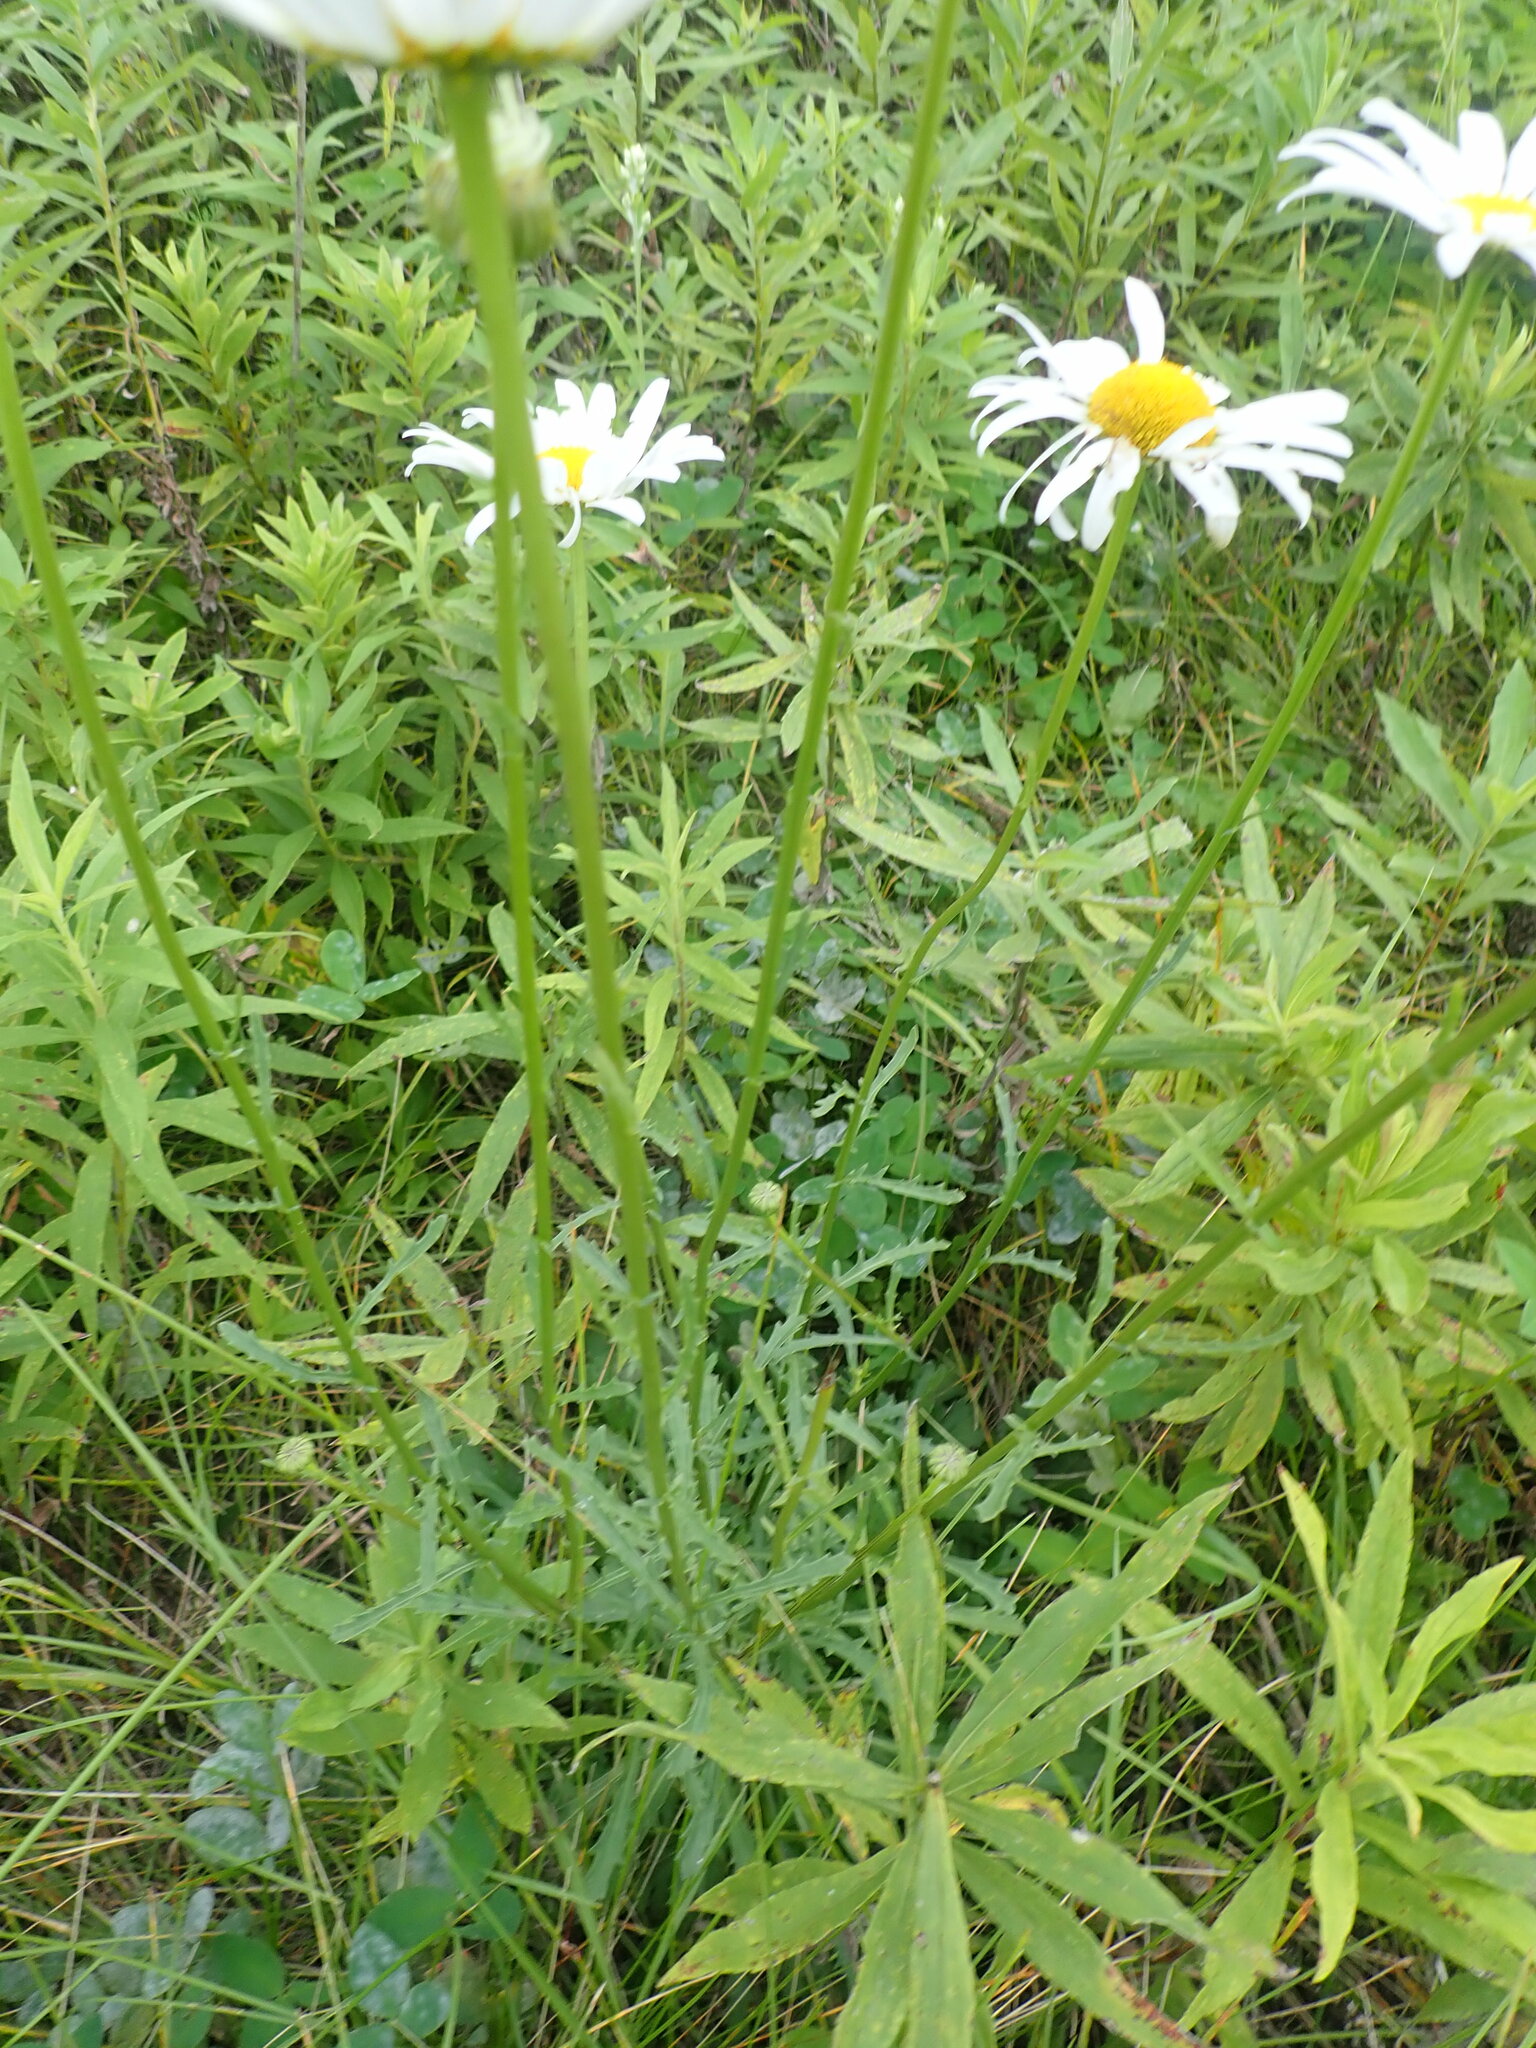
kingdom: Plantae
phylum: Tracheophyta
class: Magnoliopsida
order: Asterales
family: Asteraceae
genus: Leucanthemum
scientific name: Leucanthemum vulgare
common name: Oxeye daisy
